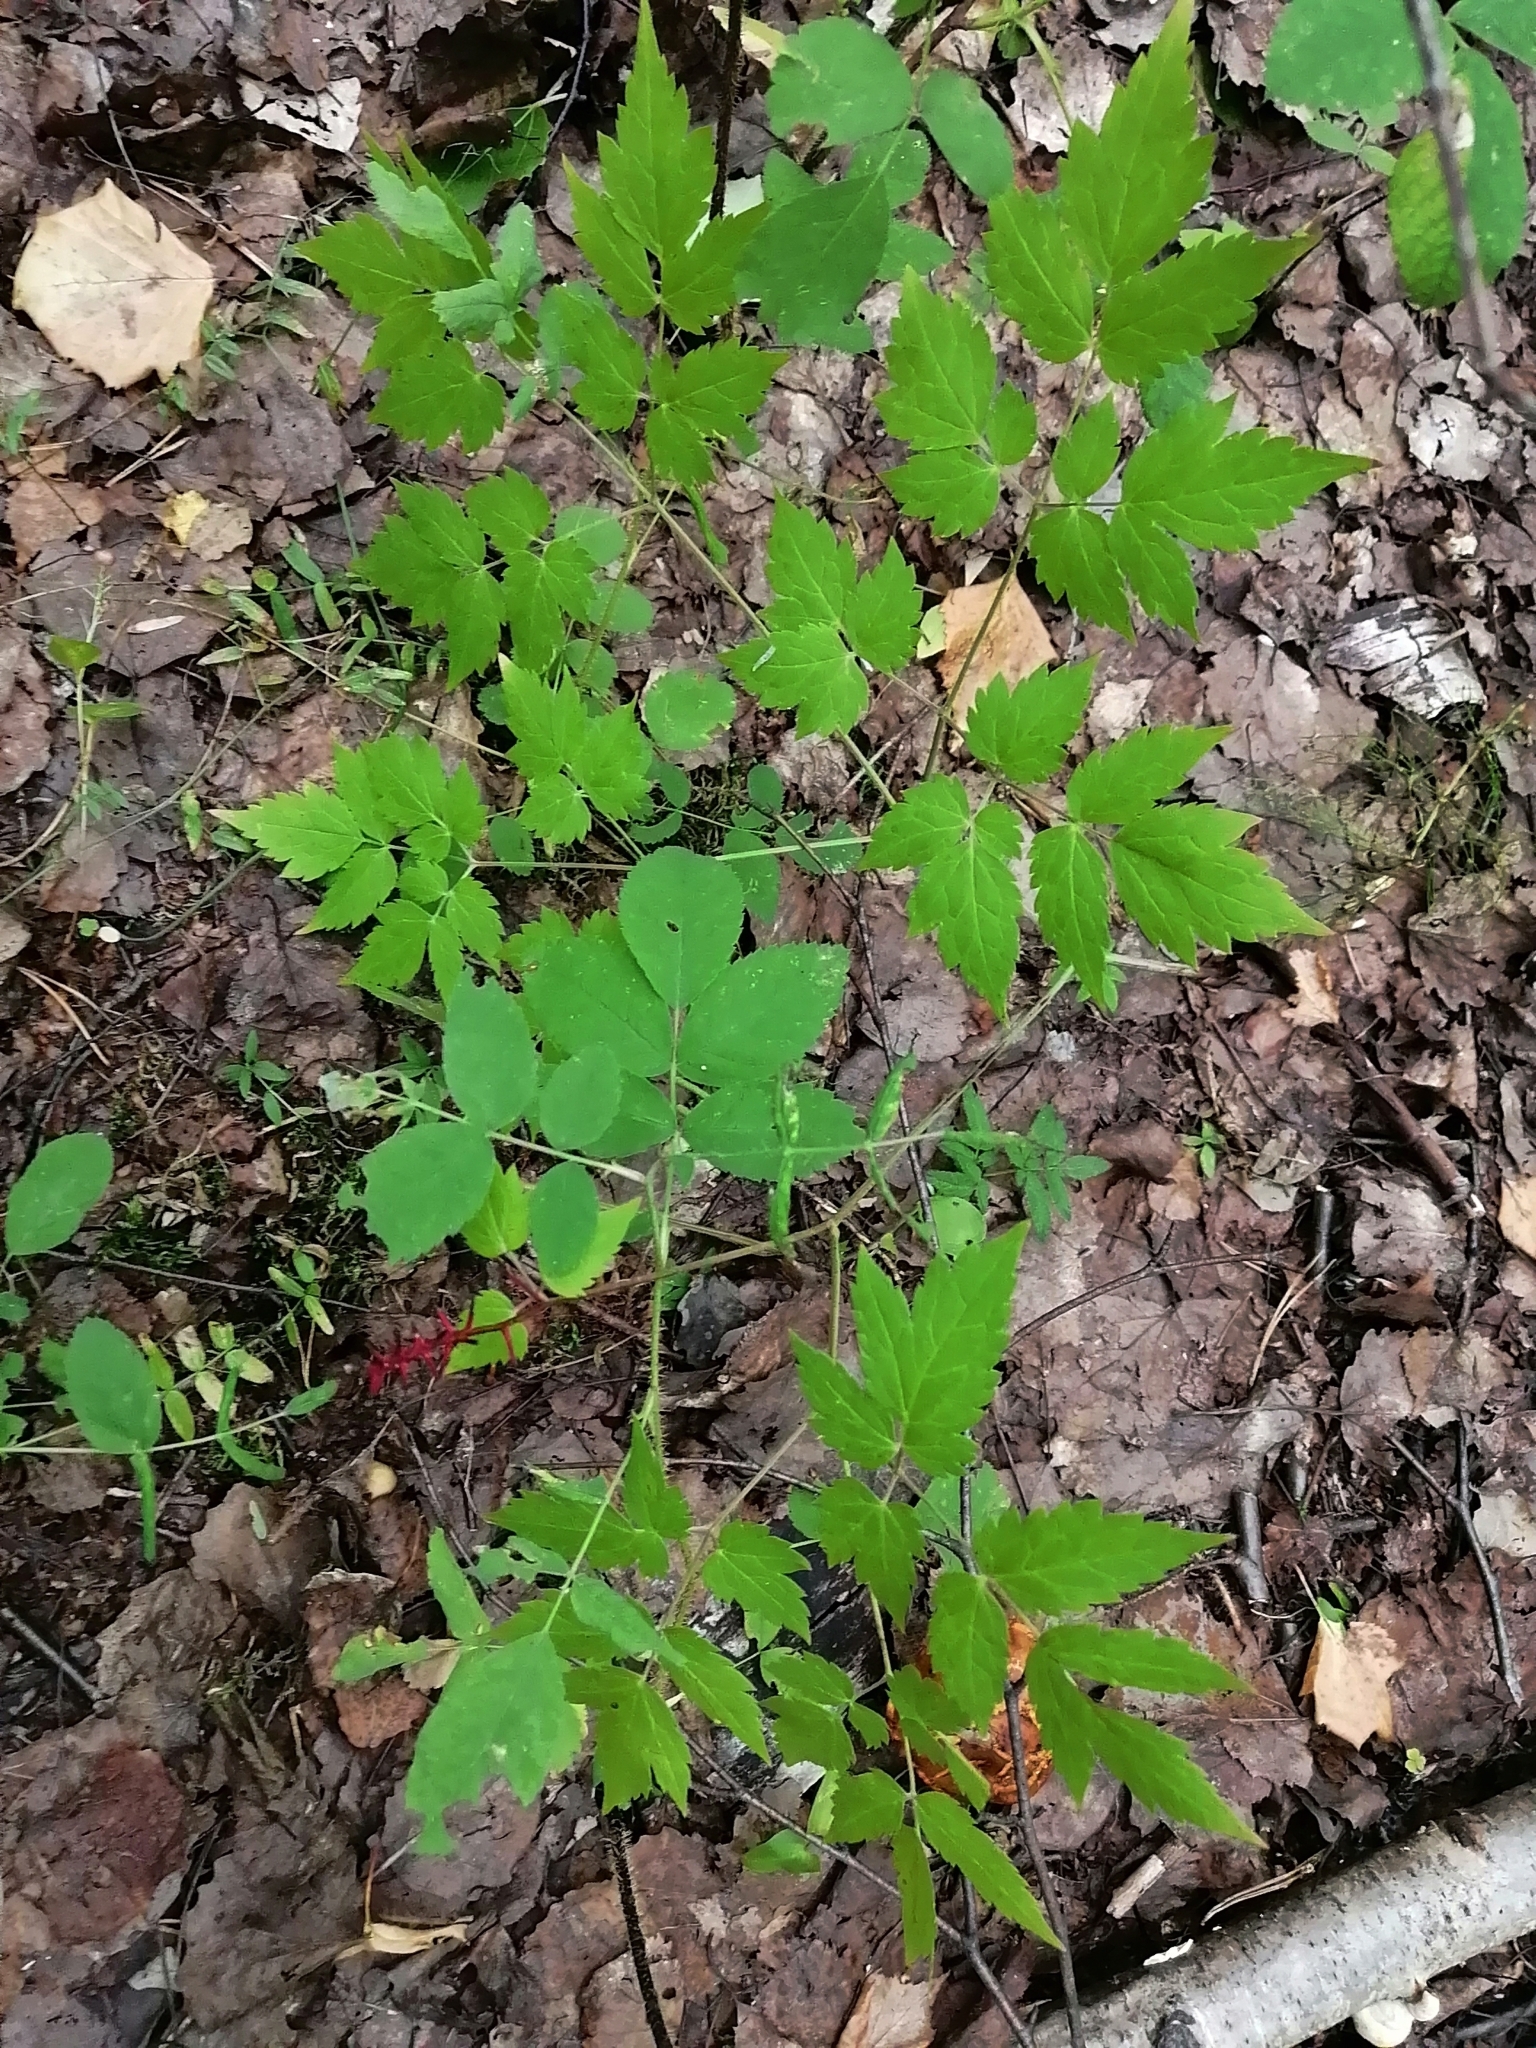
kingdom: Plantae
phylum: Tracheophyta
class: Magnoliopsida
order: Ranunculales
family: Ranunculaceae
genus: Actaea
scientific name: Actaea erythrocarpa
